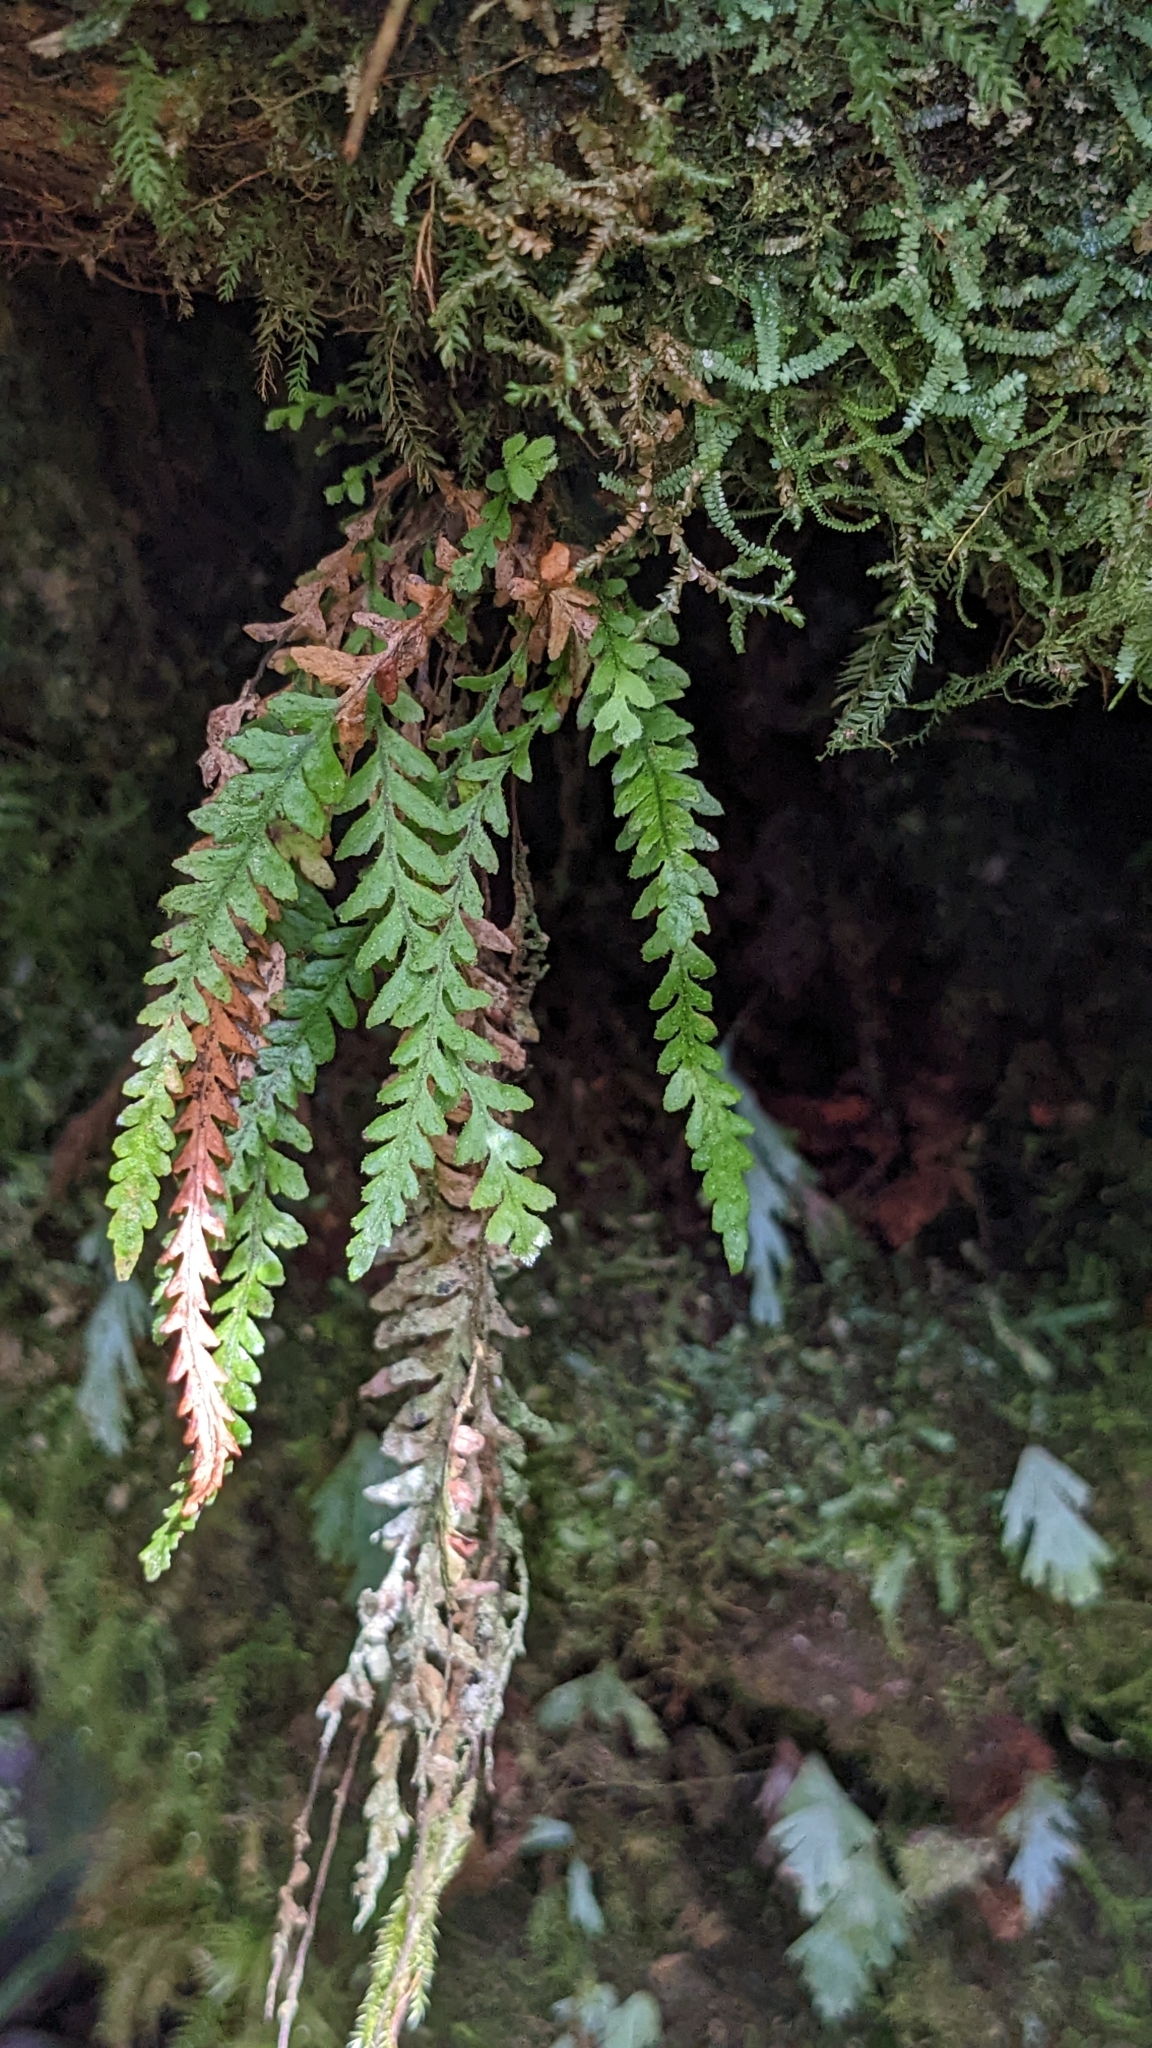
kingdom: Plantae
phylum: Tracheophyta
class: Polypodiopsida
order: Polypodiales
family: Polypodiaceae
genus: Chrysogrammitis
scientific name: Chrysogrammitis glandulosa
